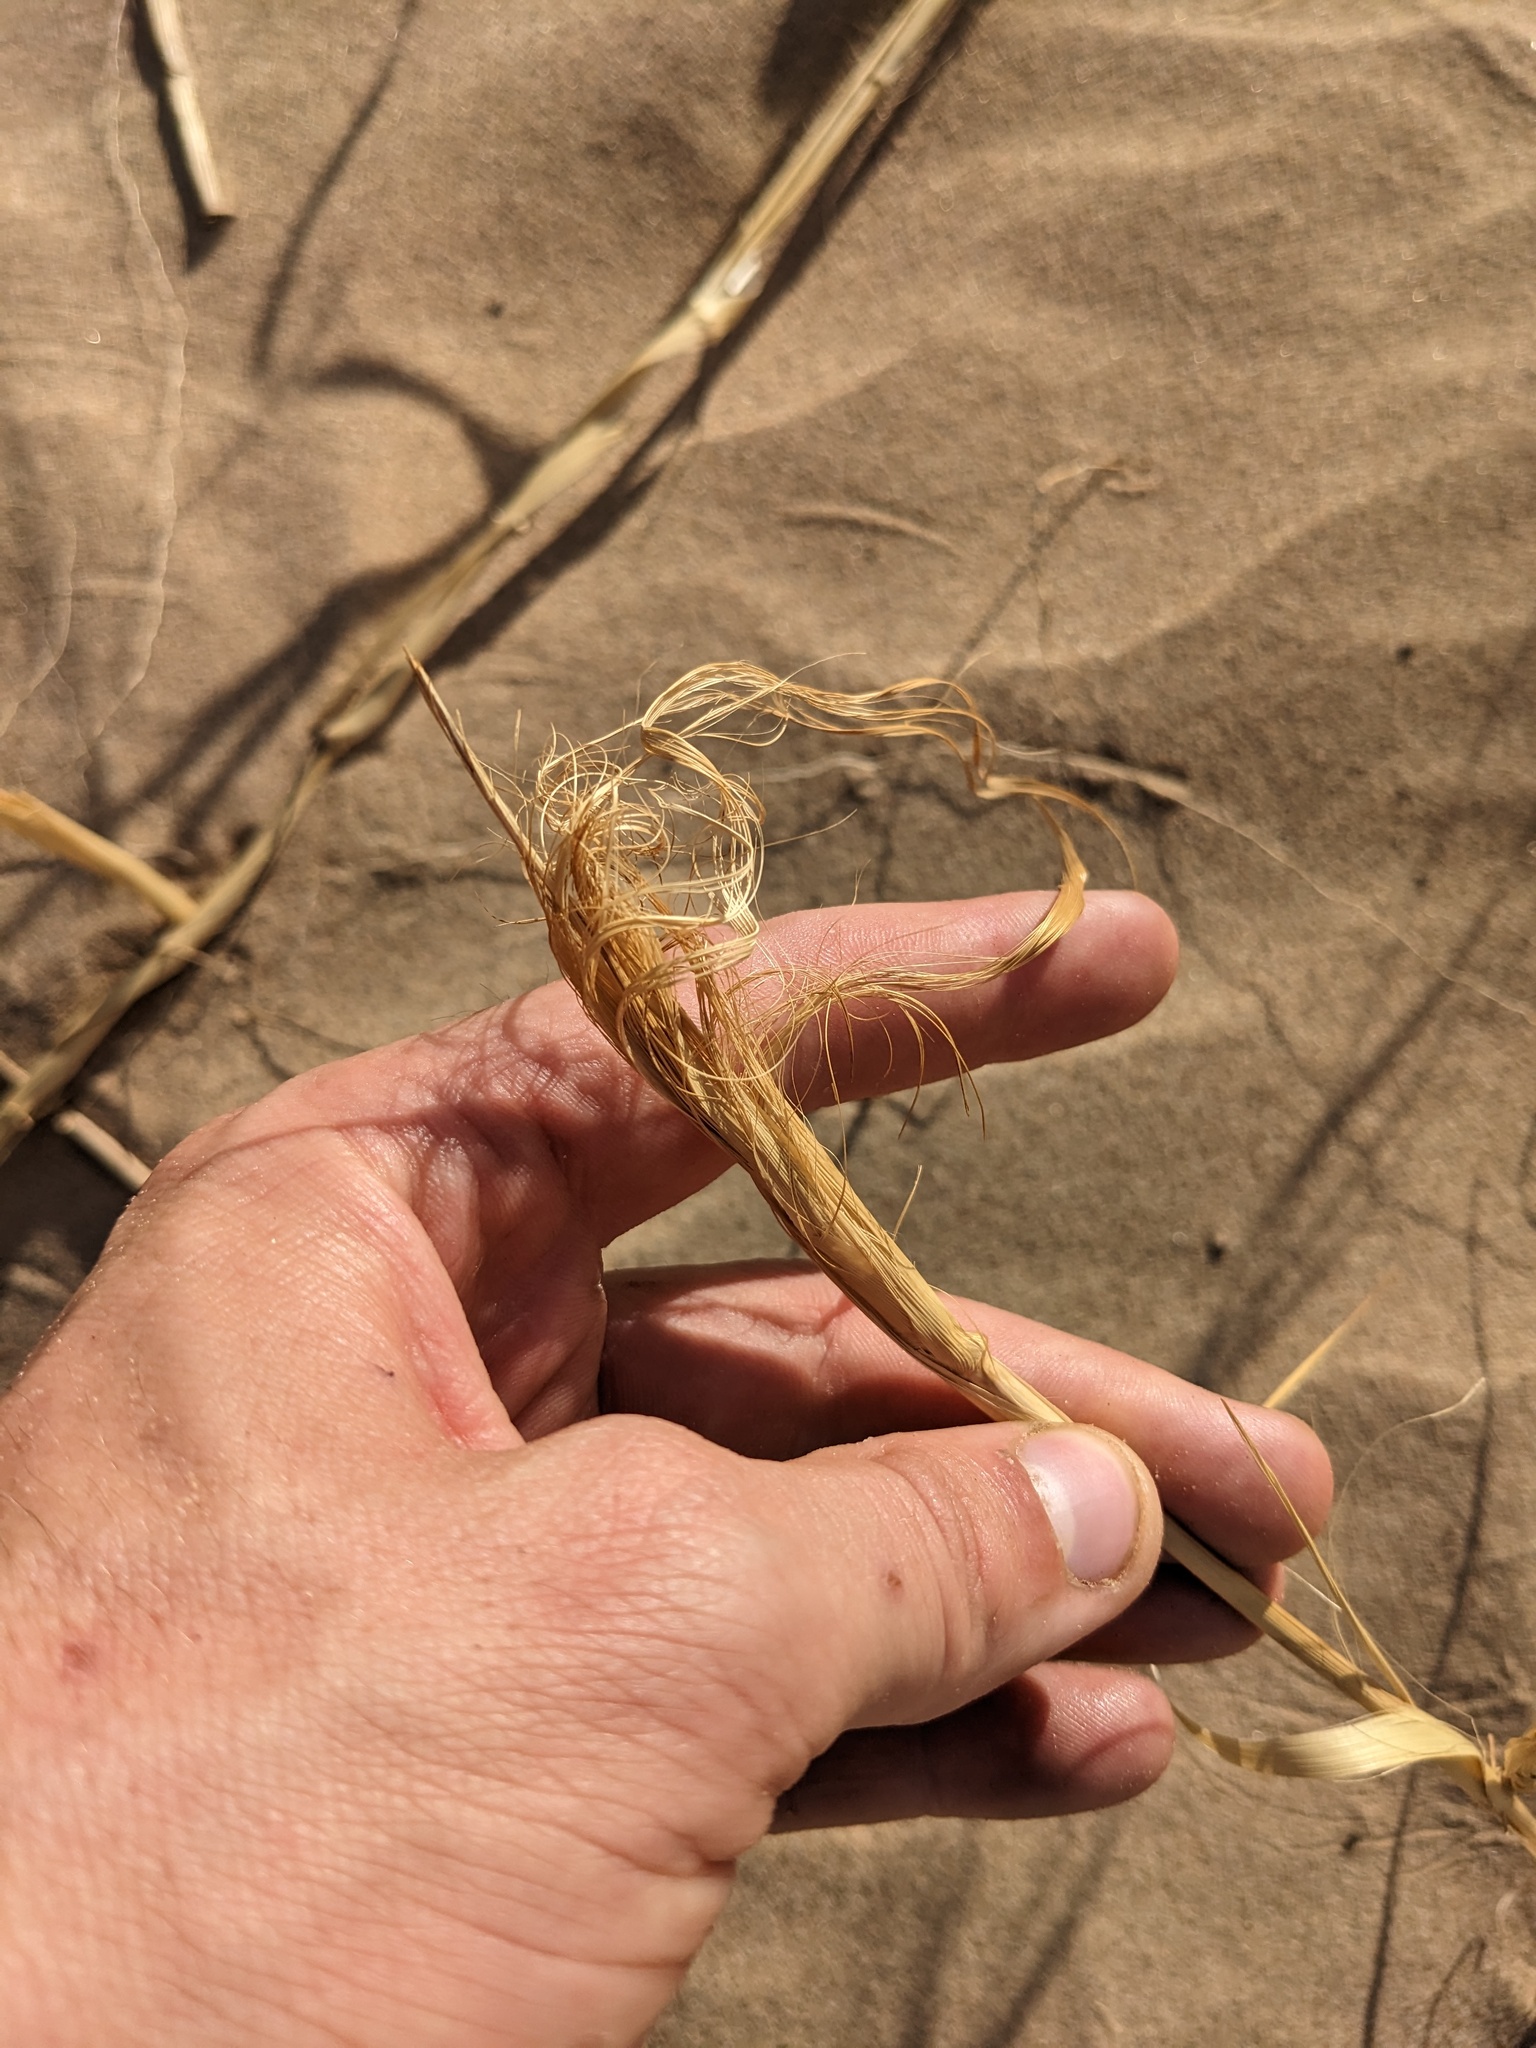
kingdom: Plantae
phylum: Tracheophyta
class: Liliopsida
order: Poales
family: Poaceae
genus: Panicum
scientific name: Panicum urvilleanum
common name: Silky panic grass
